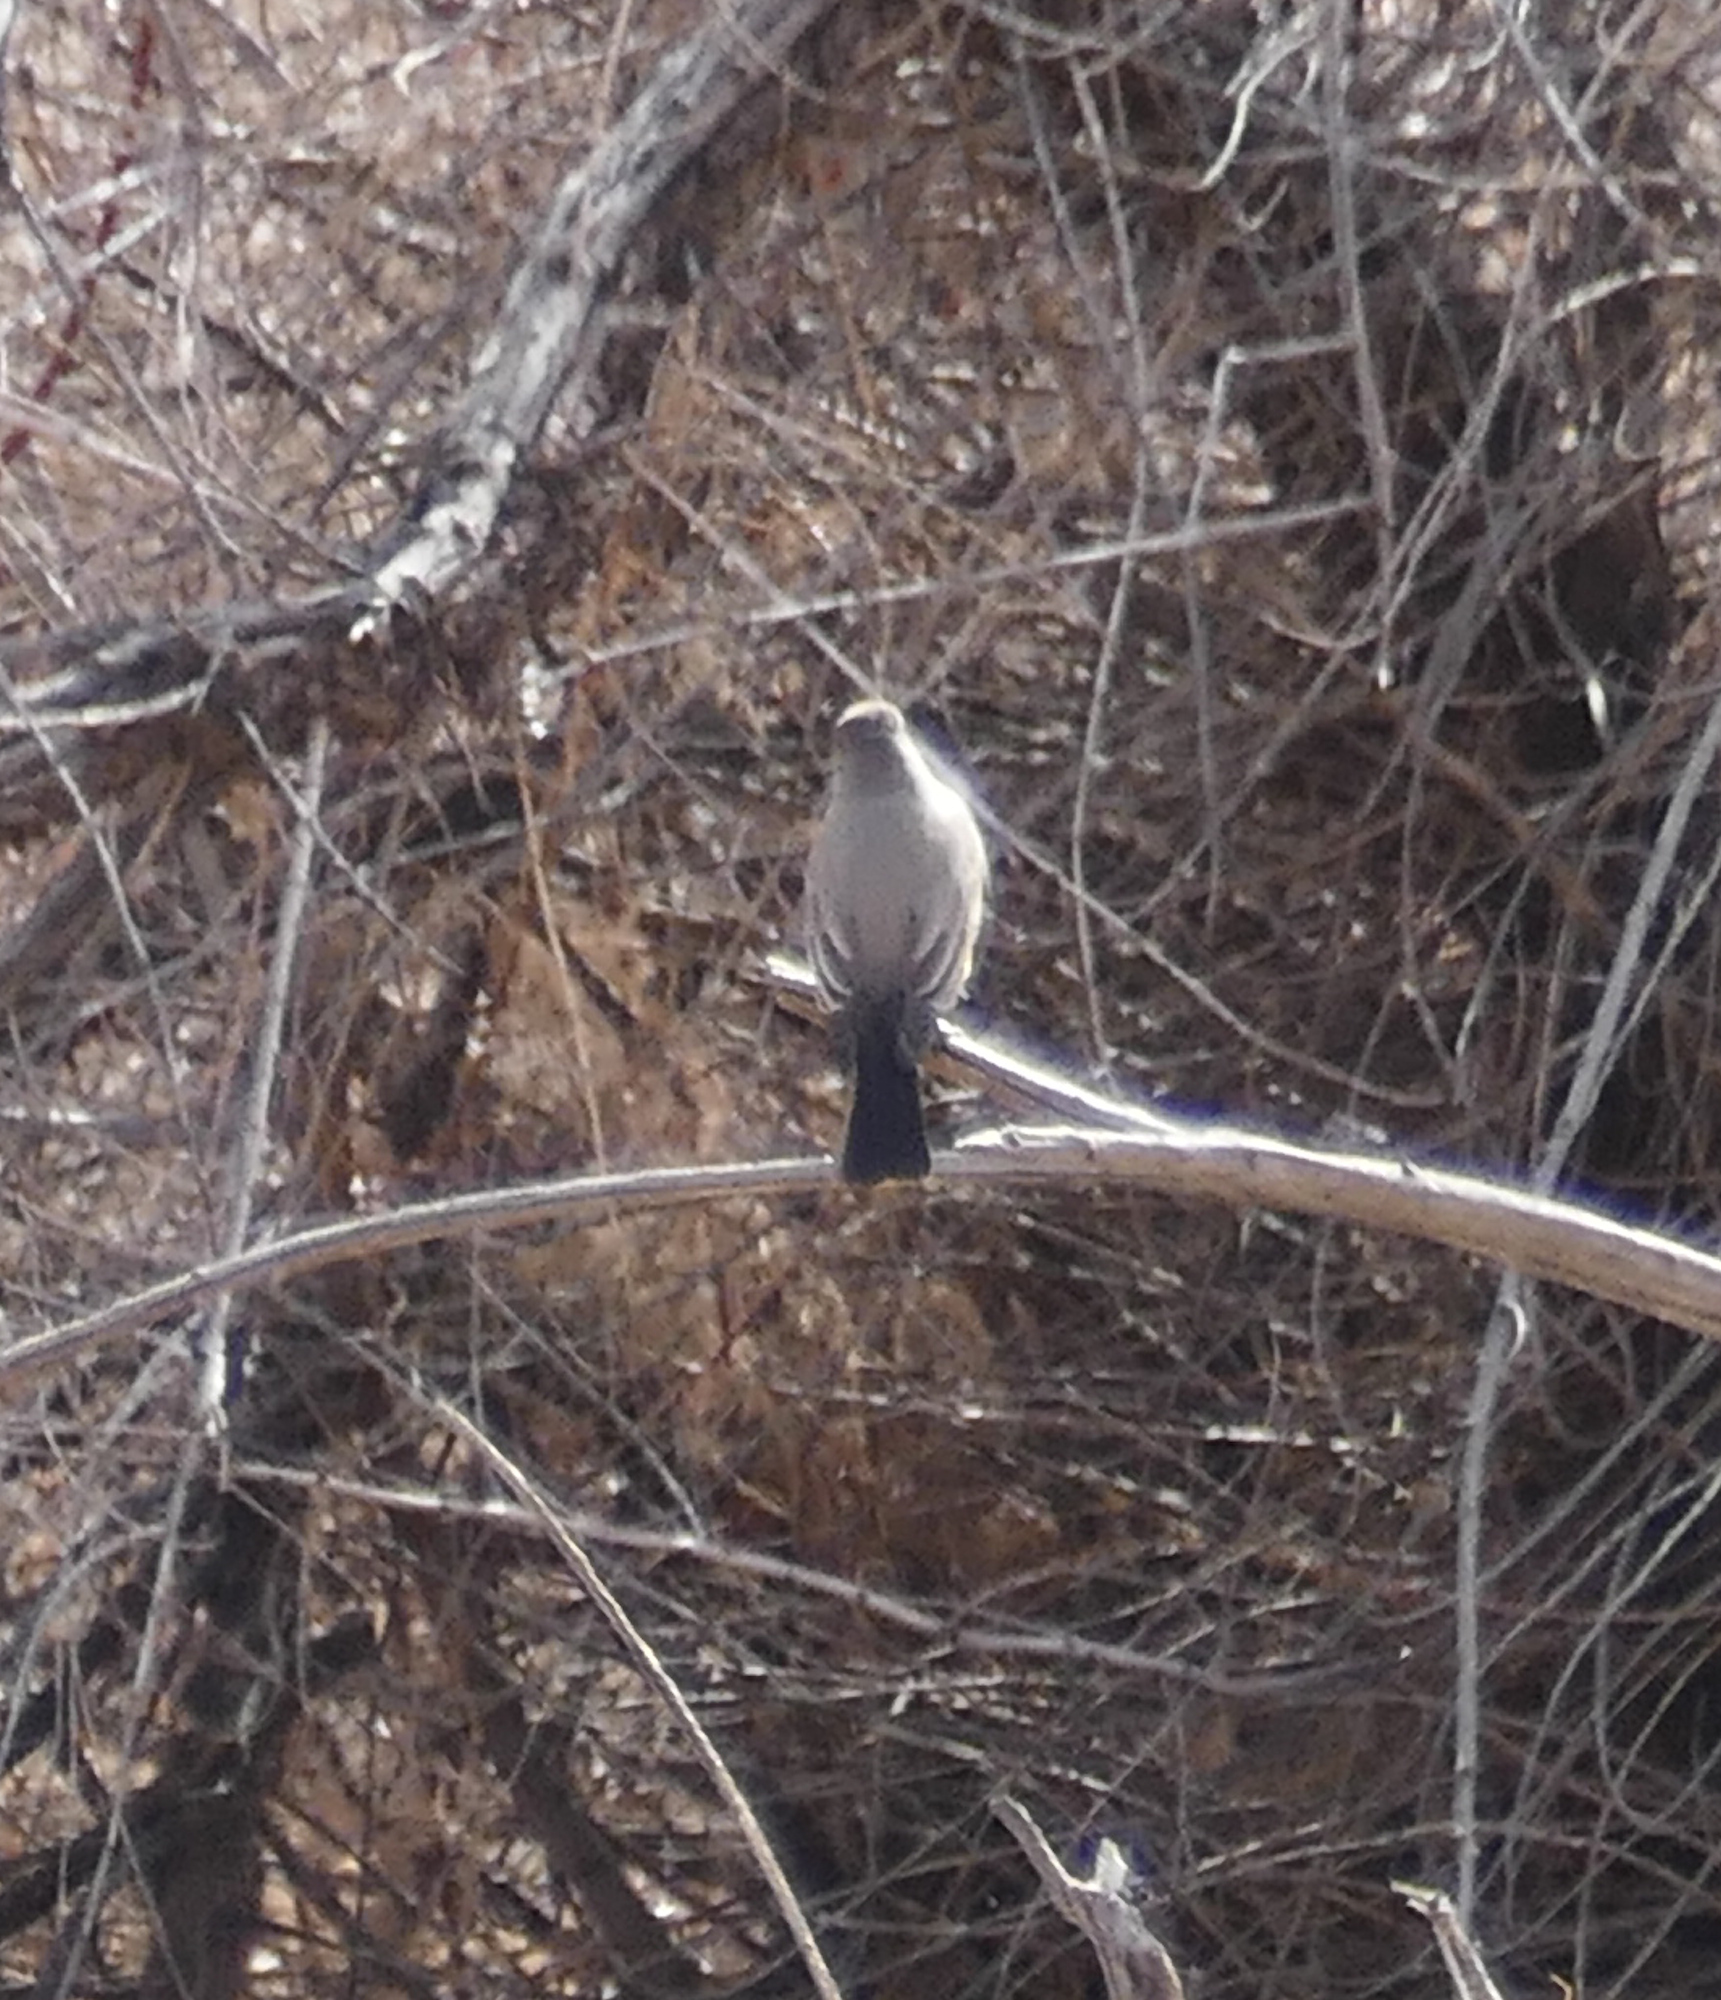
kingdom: Animalia
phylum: Chordata
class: Aves
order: Passeriformes
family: Tyrannidae
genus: Sayornis
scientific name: Sayornis saya
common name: Say's phoebe
